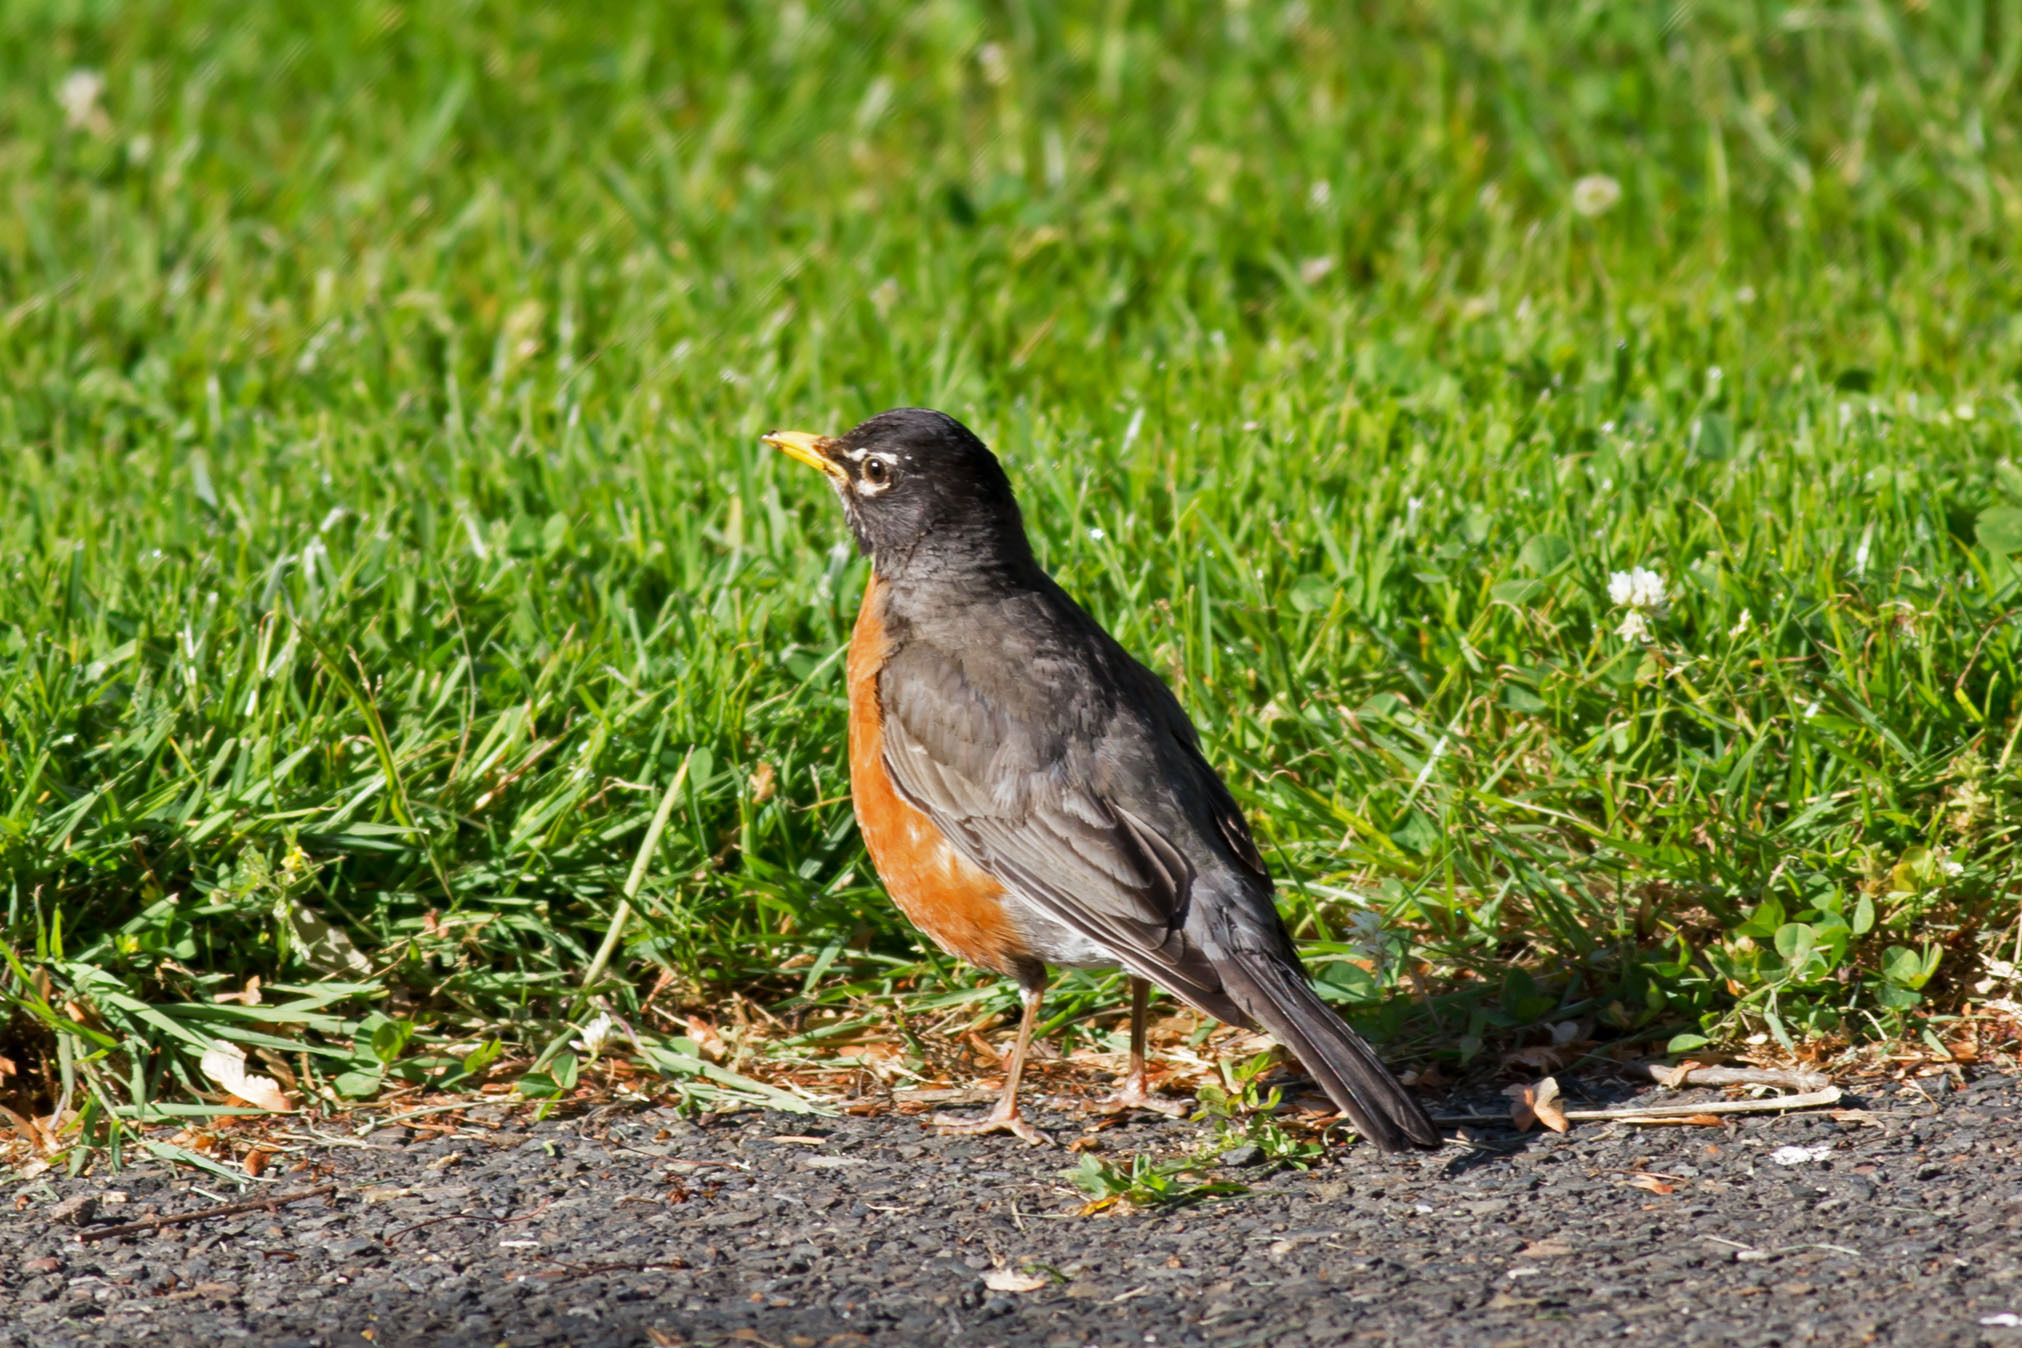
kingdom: Animalia
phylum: Chordata
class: Aves
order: Passeriformes
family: Turdidae
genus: Turdus
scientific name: Turdus migratorius
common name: American robin
